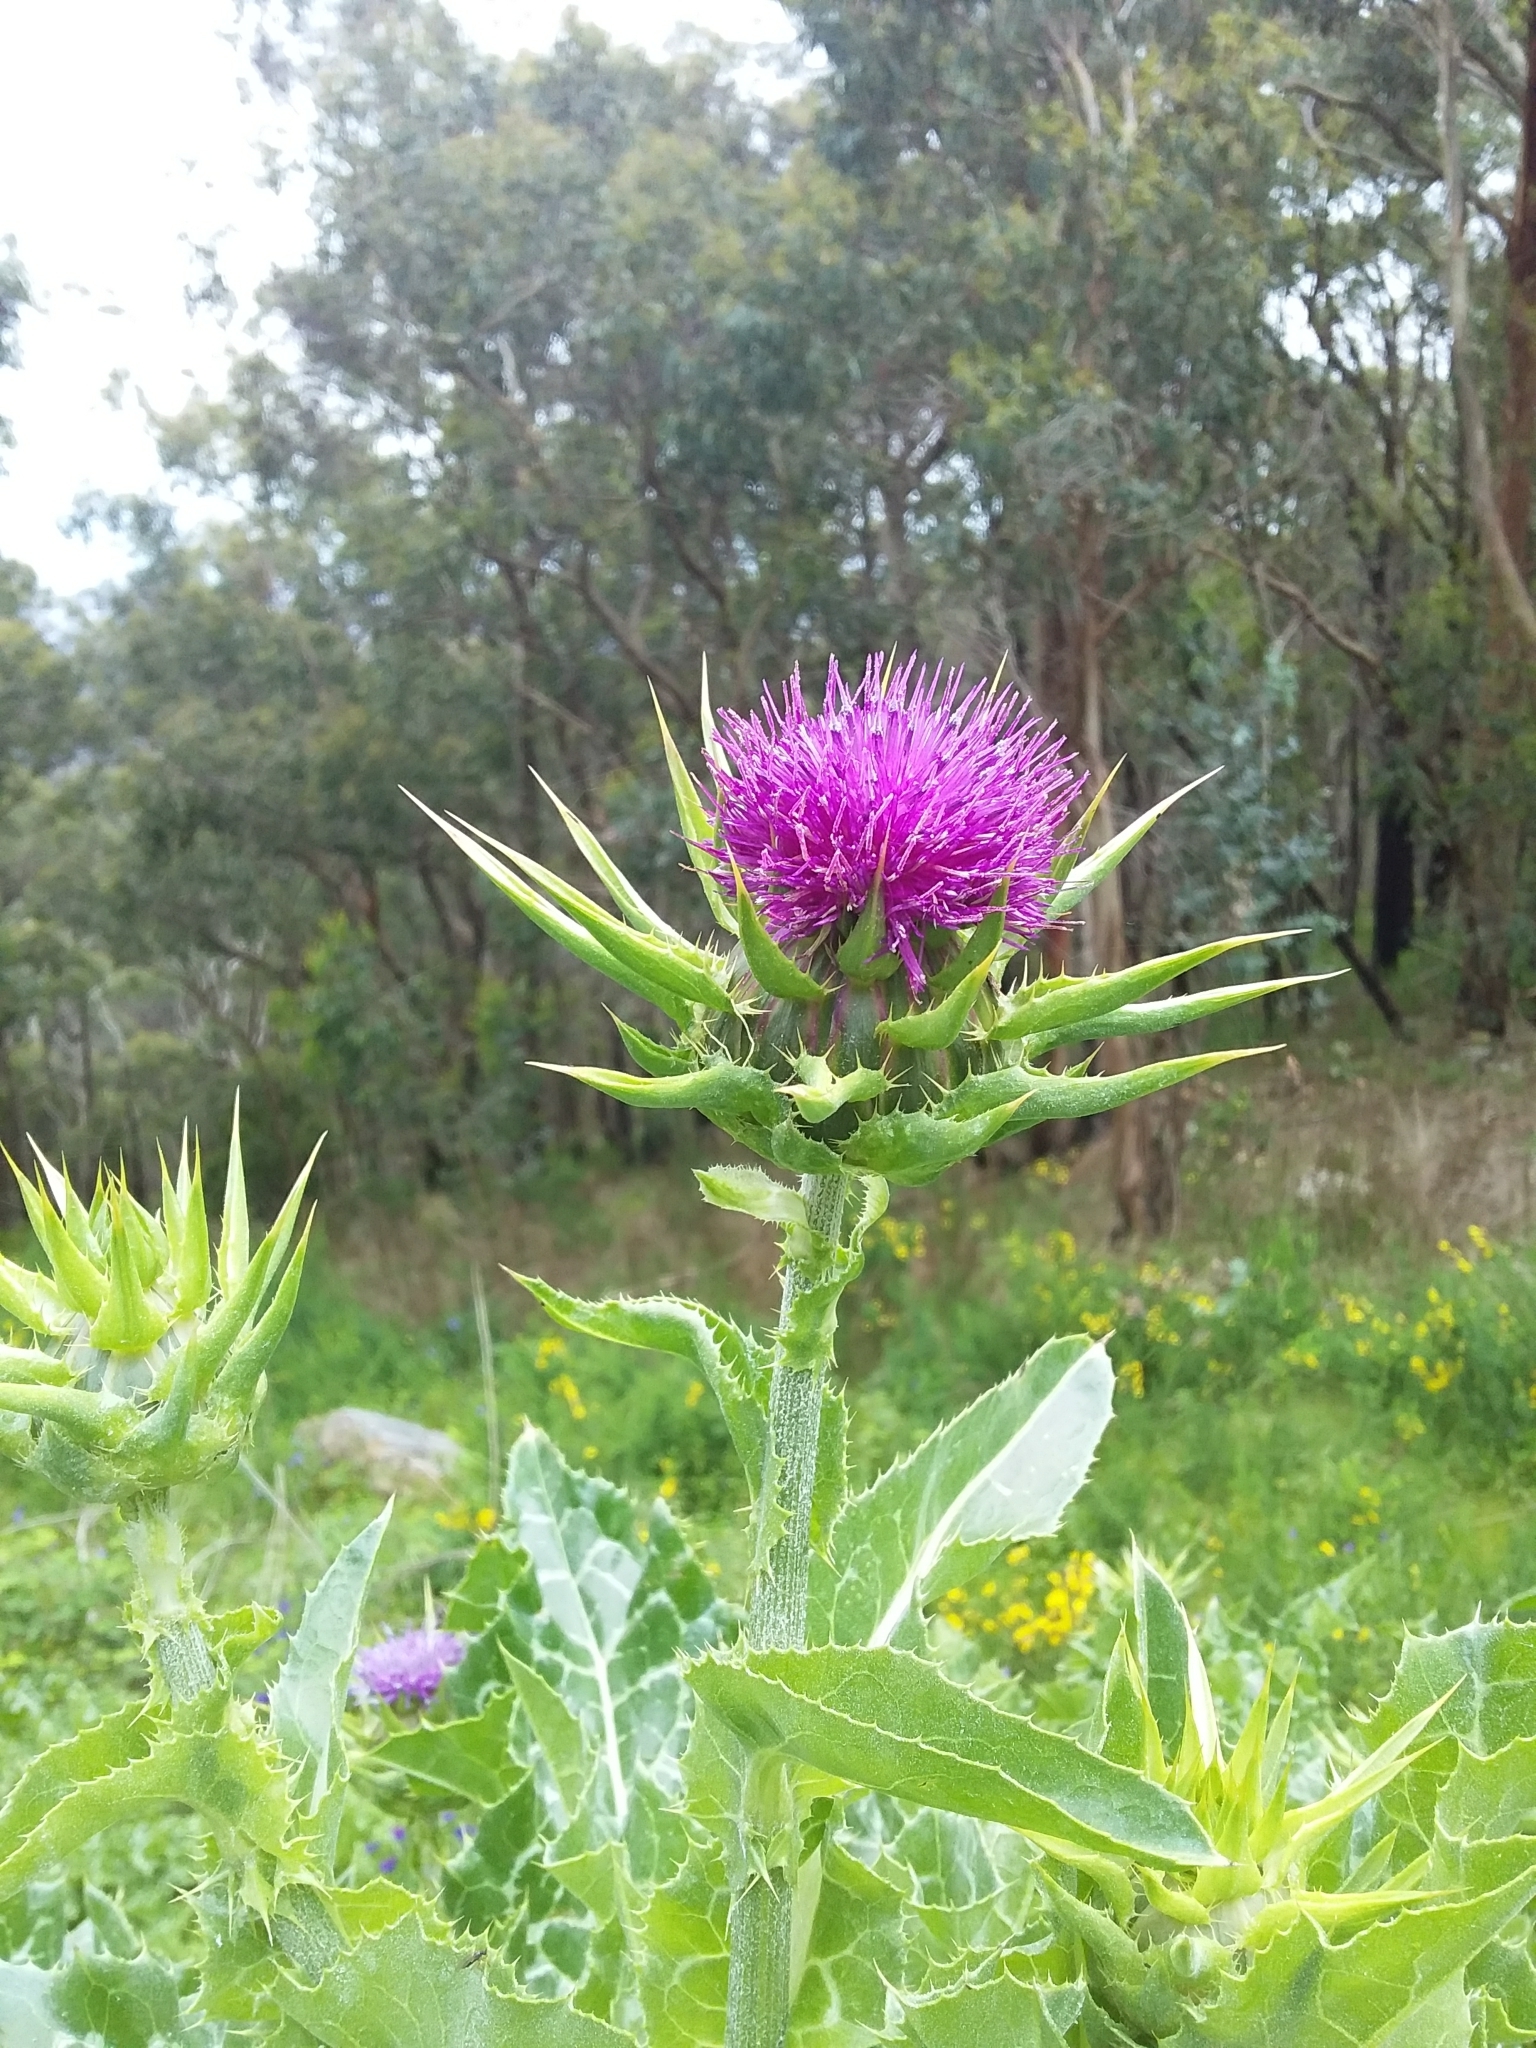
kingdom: Plantae
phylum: Tracheophyta
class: Magnoliopsida
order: Asterales
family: Asteraceae
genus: Silybum
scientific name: Silybum marianum
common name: Milk thistle
